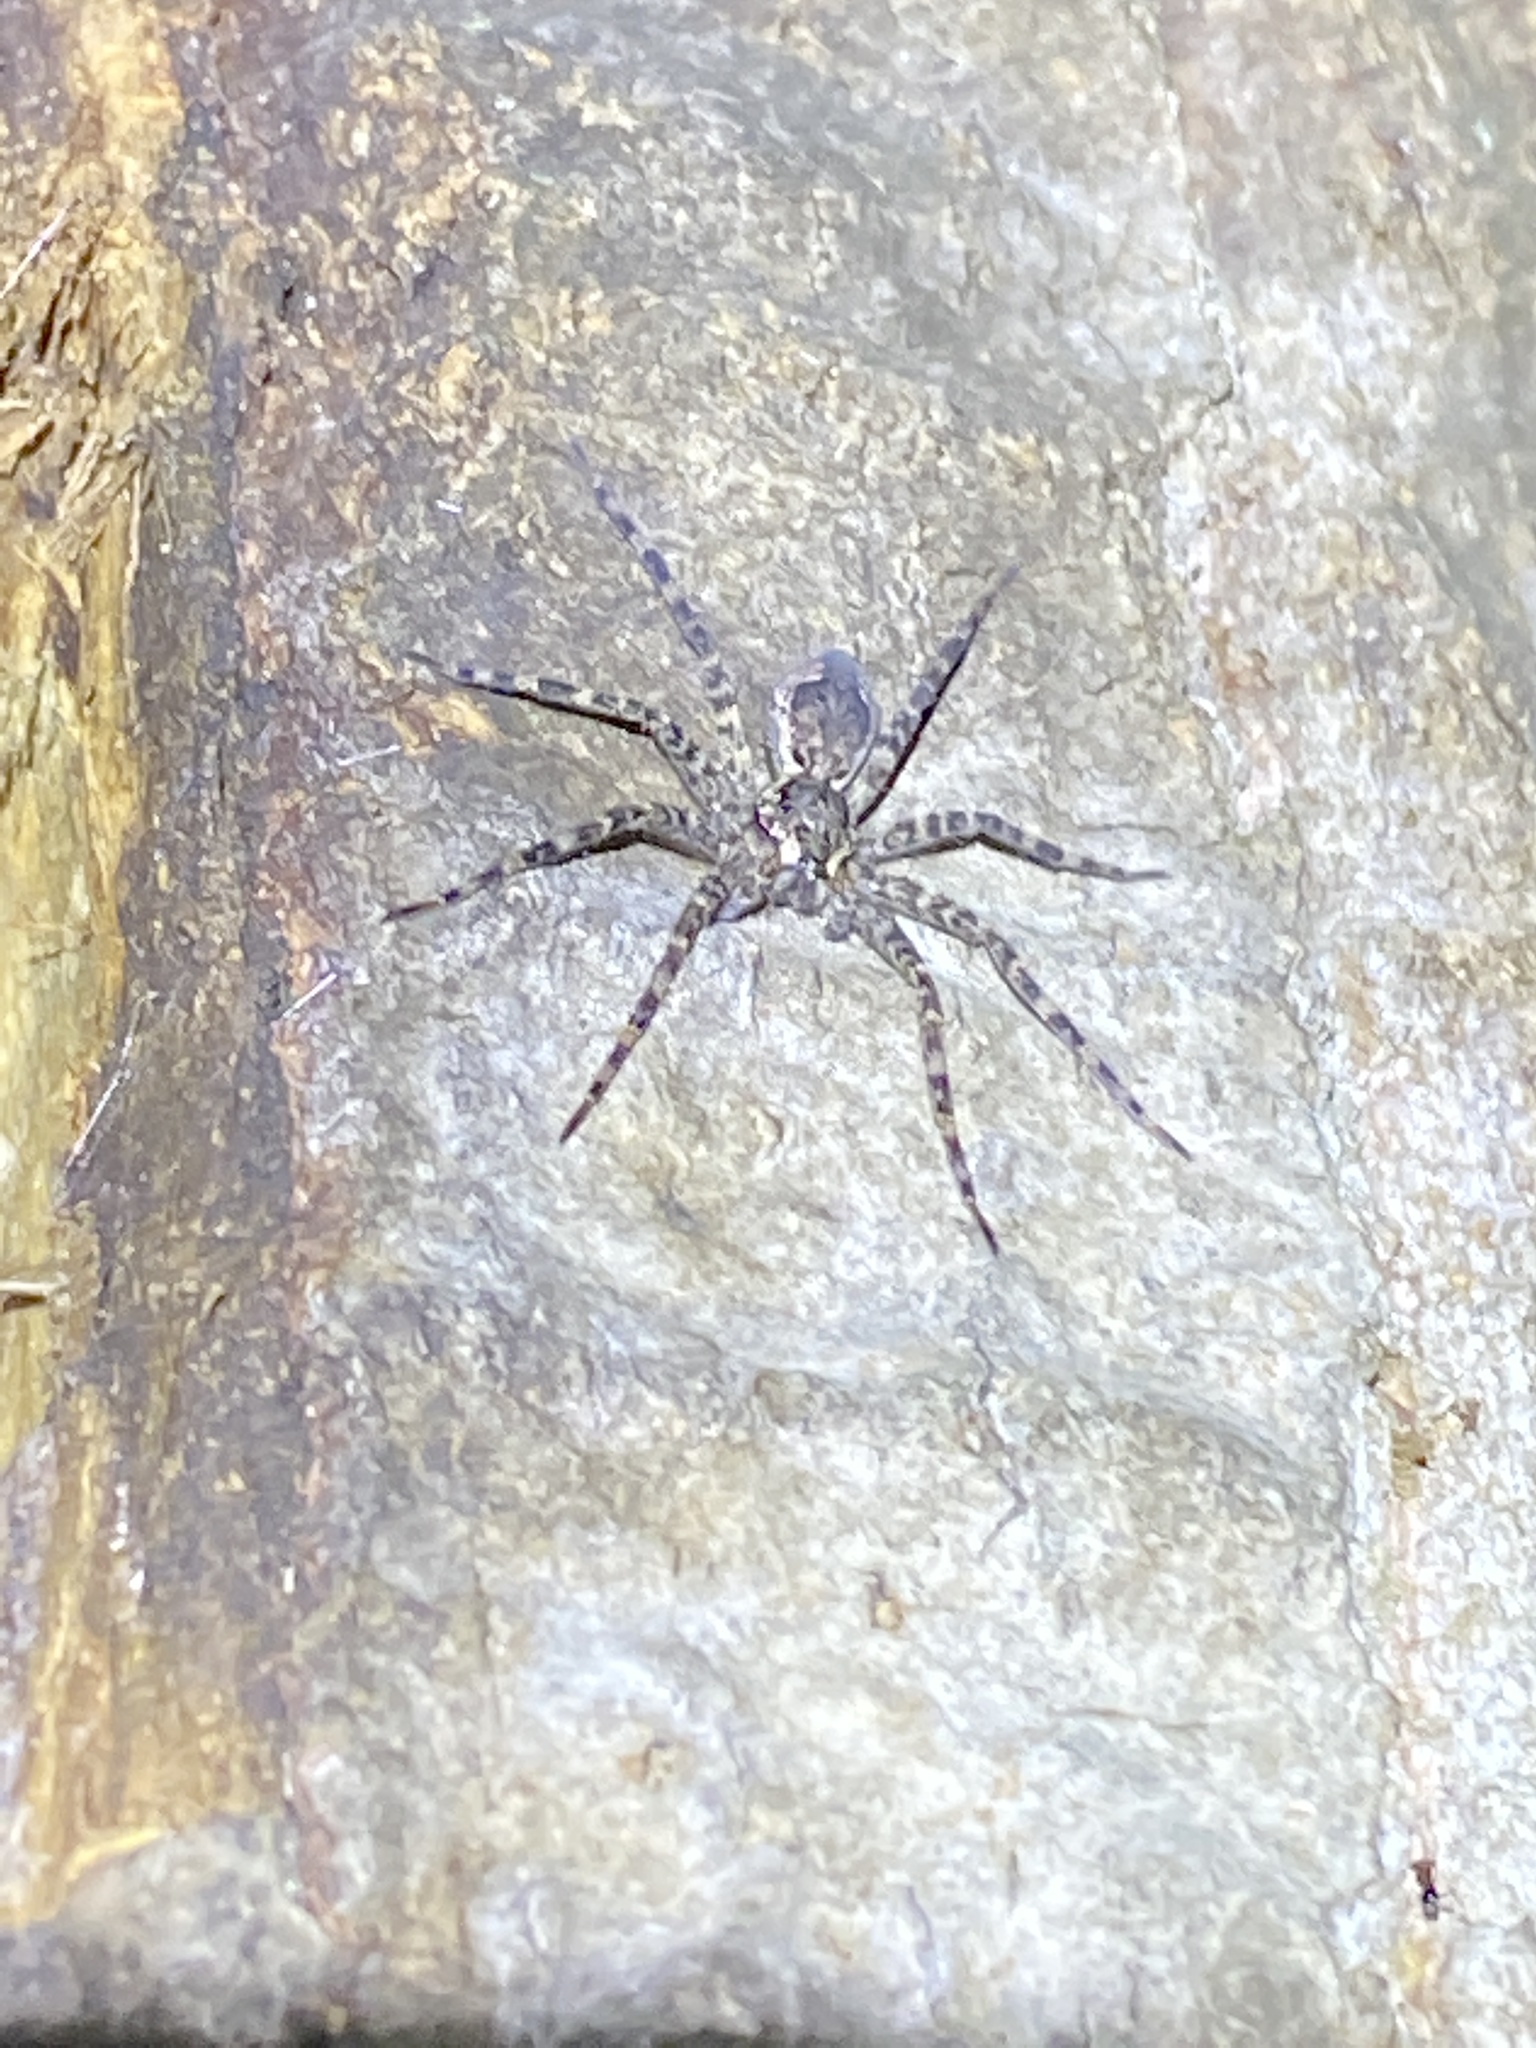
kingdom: Animalia
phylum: Arthropoda
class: Arachnida
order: Araneae
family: Pisauridae
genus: Dolomedes
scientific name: Dolomedes tenebrosus
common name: Dark fishing spider
